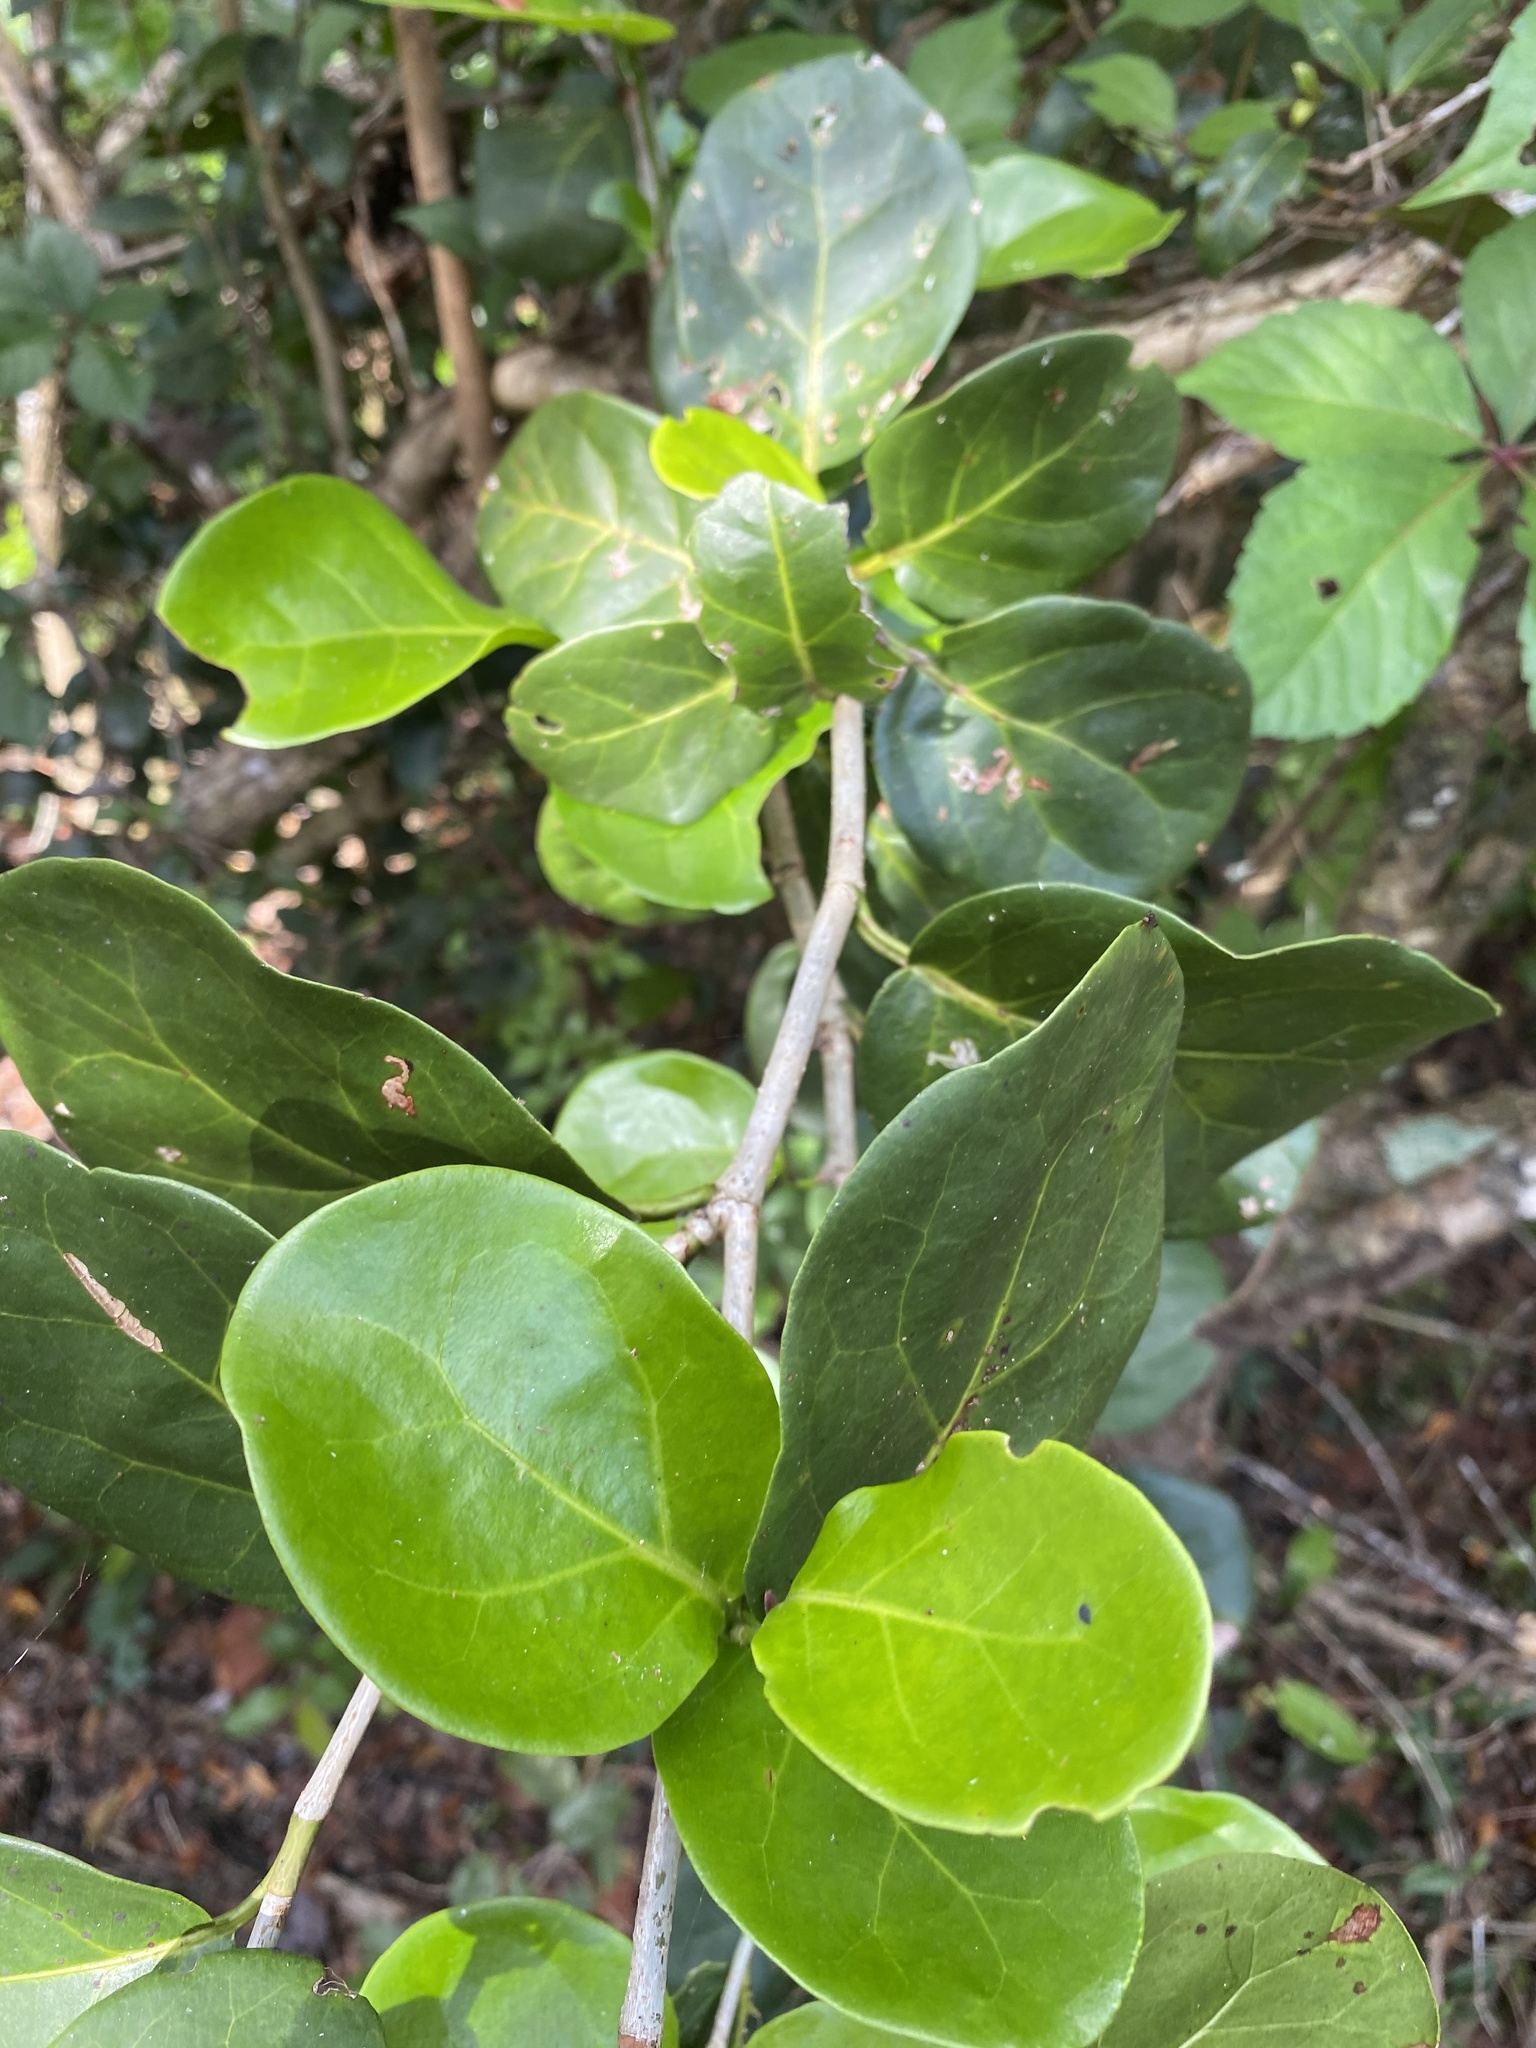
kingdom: Plantae
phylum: Tracheophyta
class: Magnoliopsida
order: Caryophyllales
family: Polygonaceae
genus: Coccoloba
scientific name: Coccoloba diversifolia
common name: Pigeon-plum
